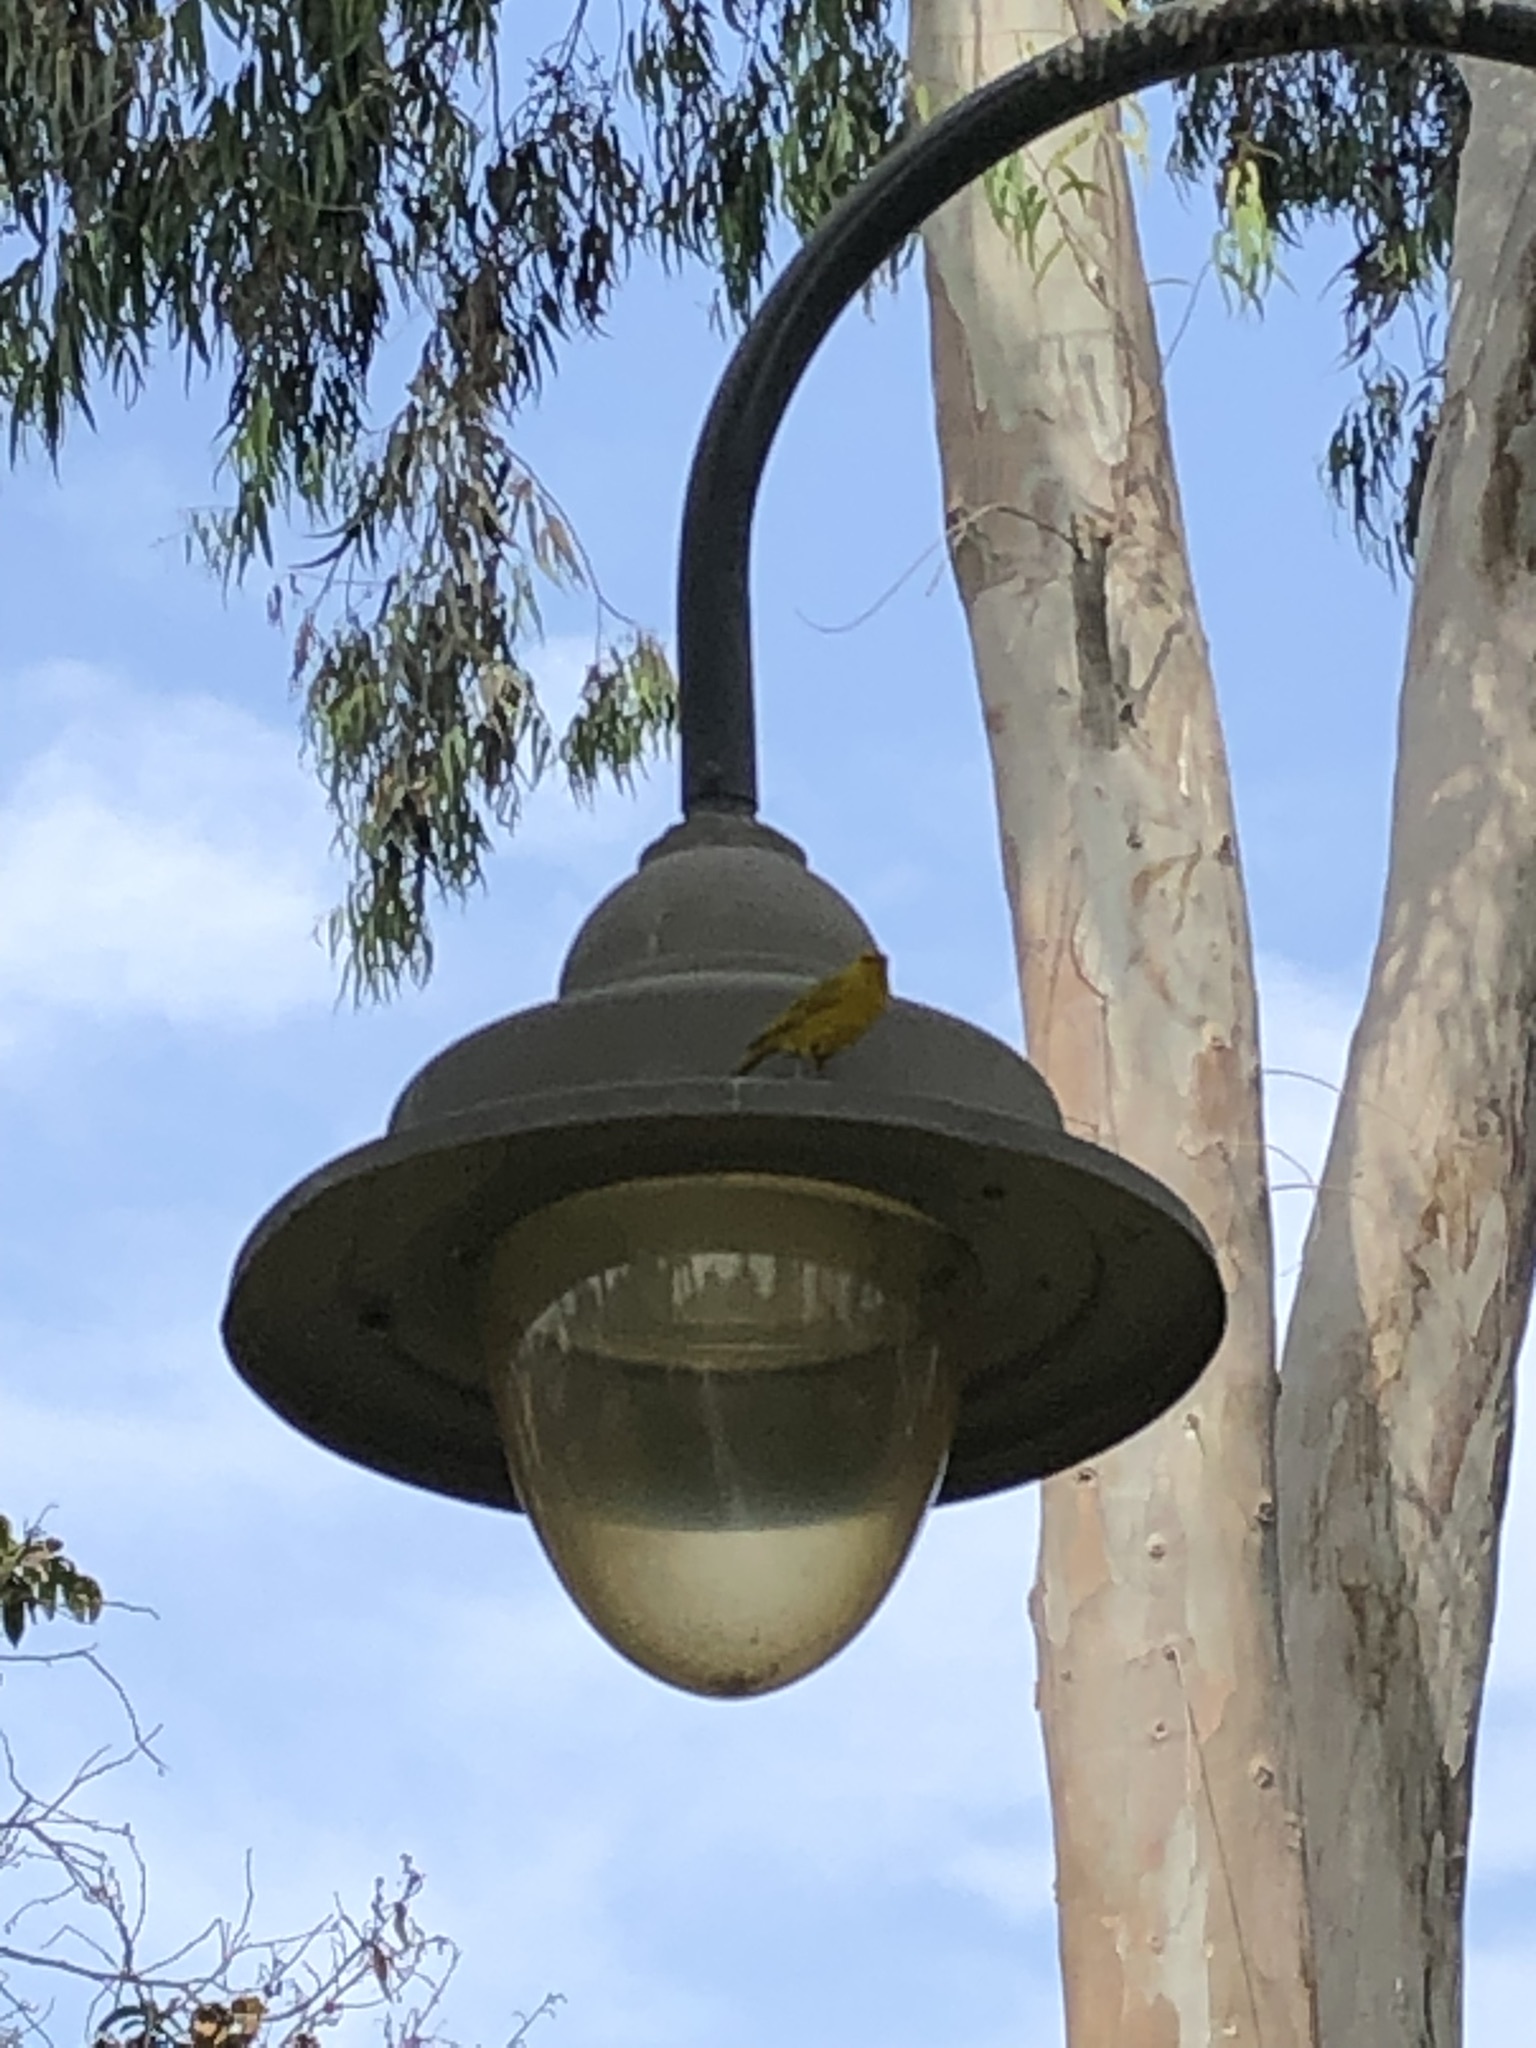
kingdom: Animalia
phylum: Chordata
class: Aves
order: Passeriformes
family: Thraupidae
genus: Sicalis
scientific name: Sicalis flaveola
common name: Saffron finch
